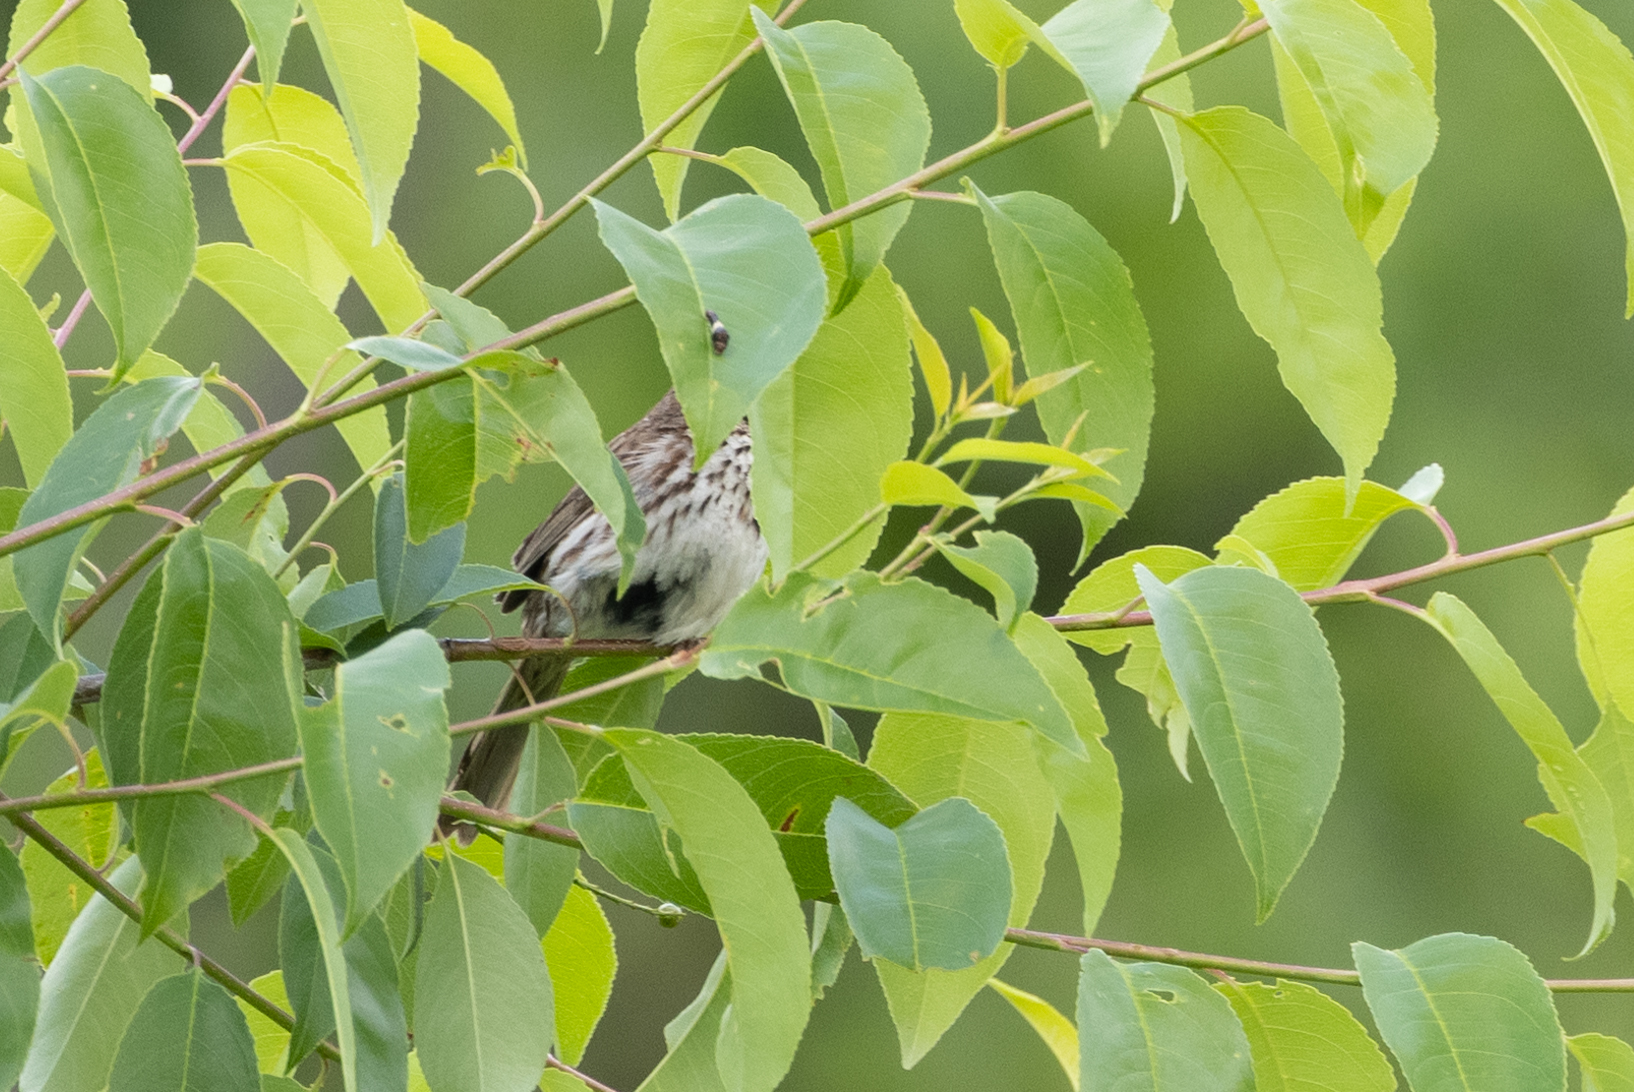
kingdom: Animalia
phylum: Chordata
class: Aves
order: Passeriformes
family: Passerellidae
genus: Melospiza
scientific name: Melospiza melodia
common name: Song sparrow
